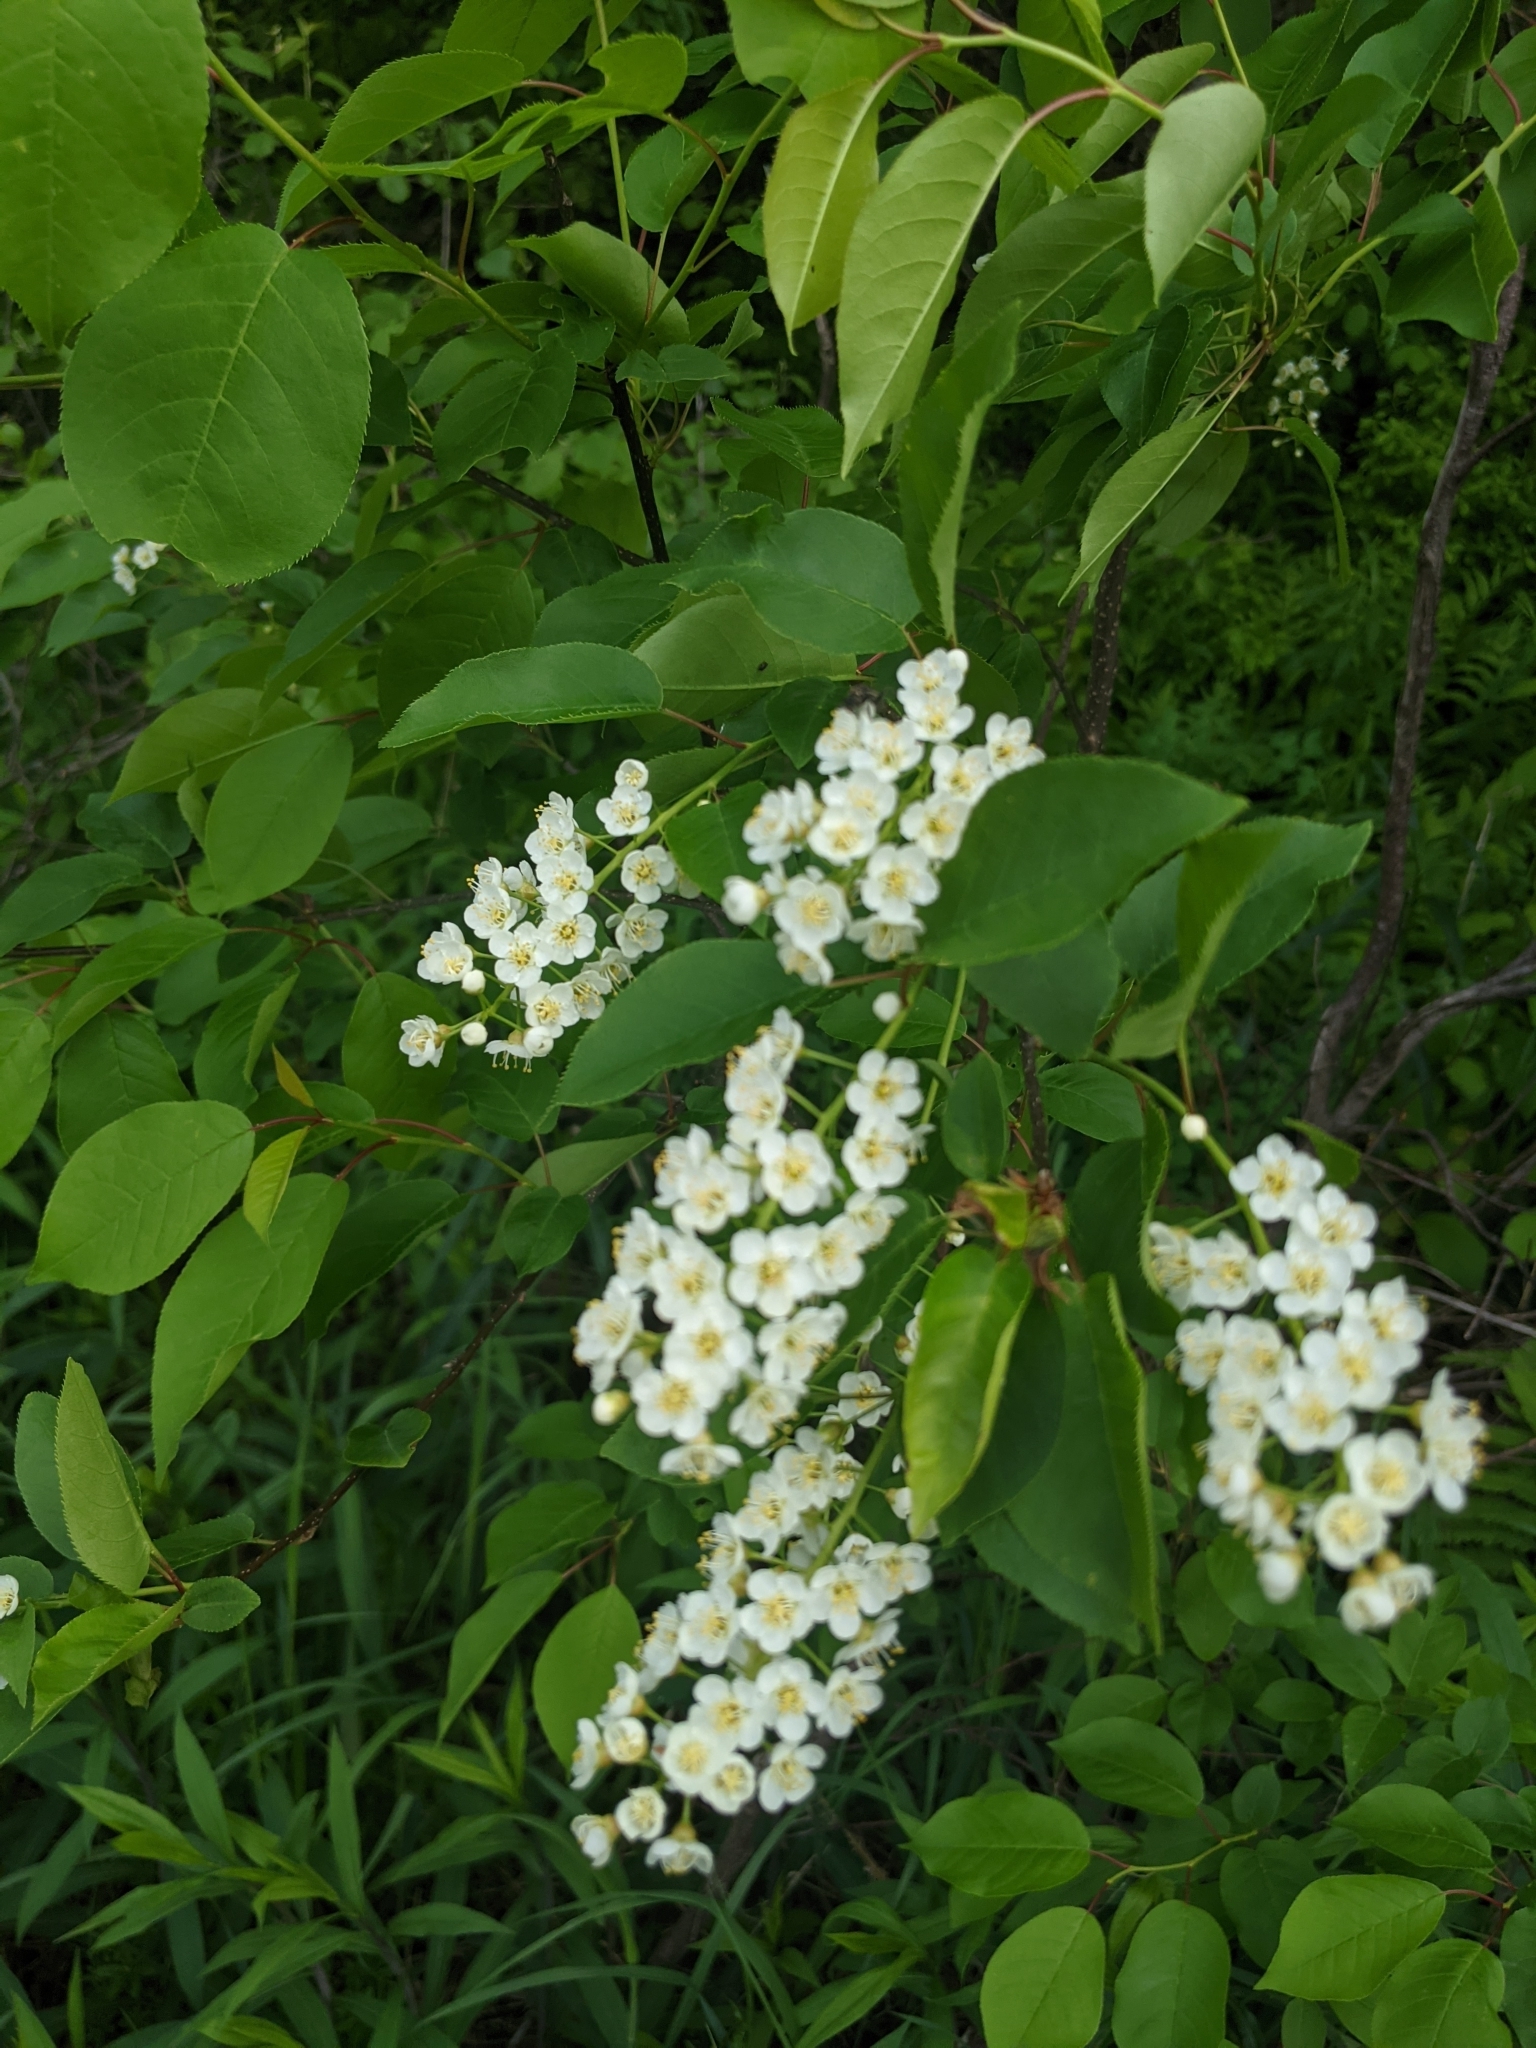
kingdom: Plantae
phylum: Tracheophyta
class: Magnoliopsida
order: Rosales
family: Rosaceae
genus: Prunus
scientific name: Prunus virginiana
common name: Chokecherry
